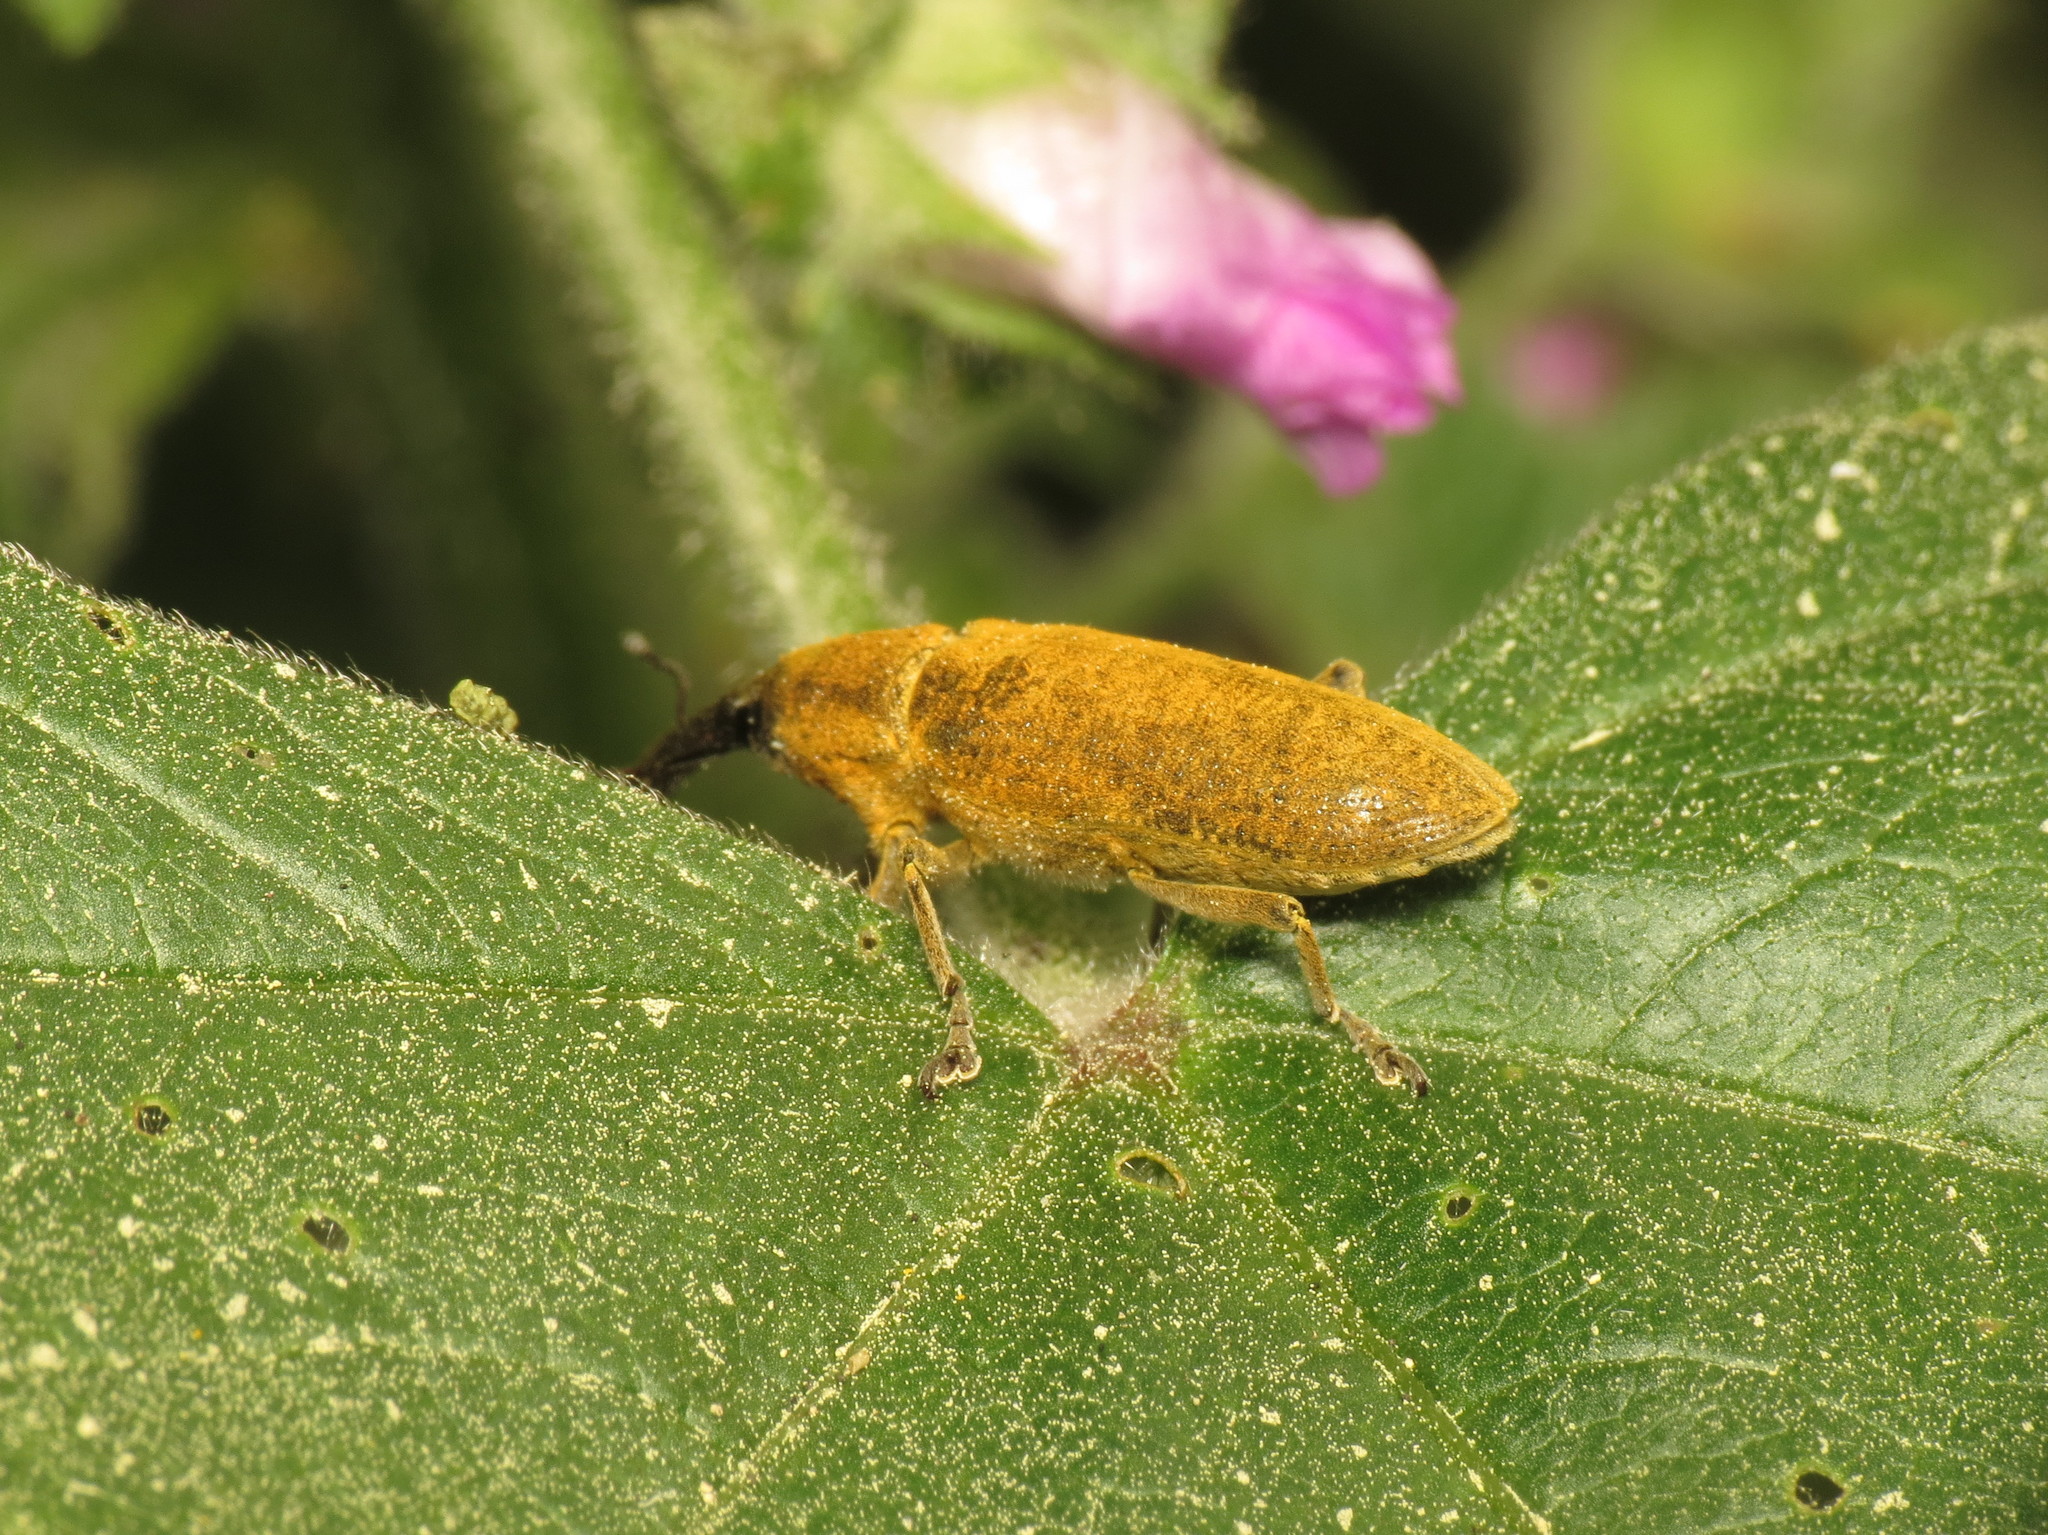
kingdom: Animalia
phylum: Arthropoda
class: Insecta
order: Coleoptera
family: Curculionidae
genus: Lixus
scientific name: Lixus pulverulentus
